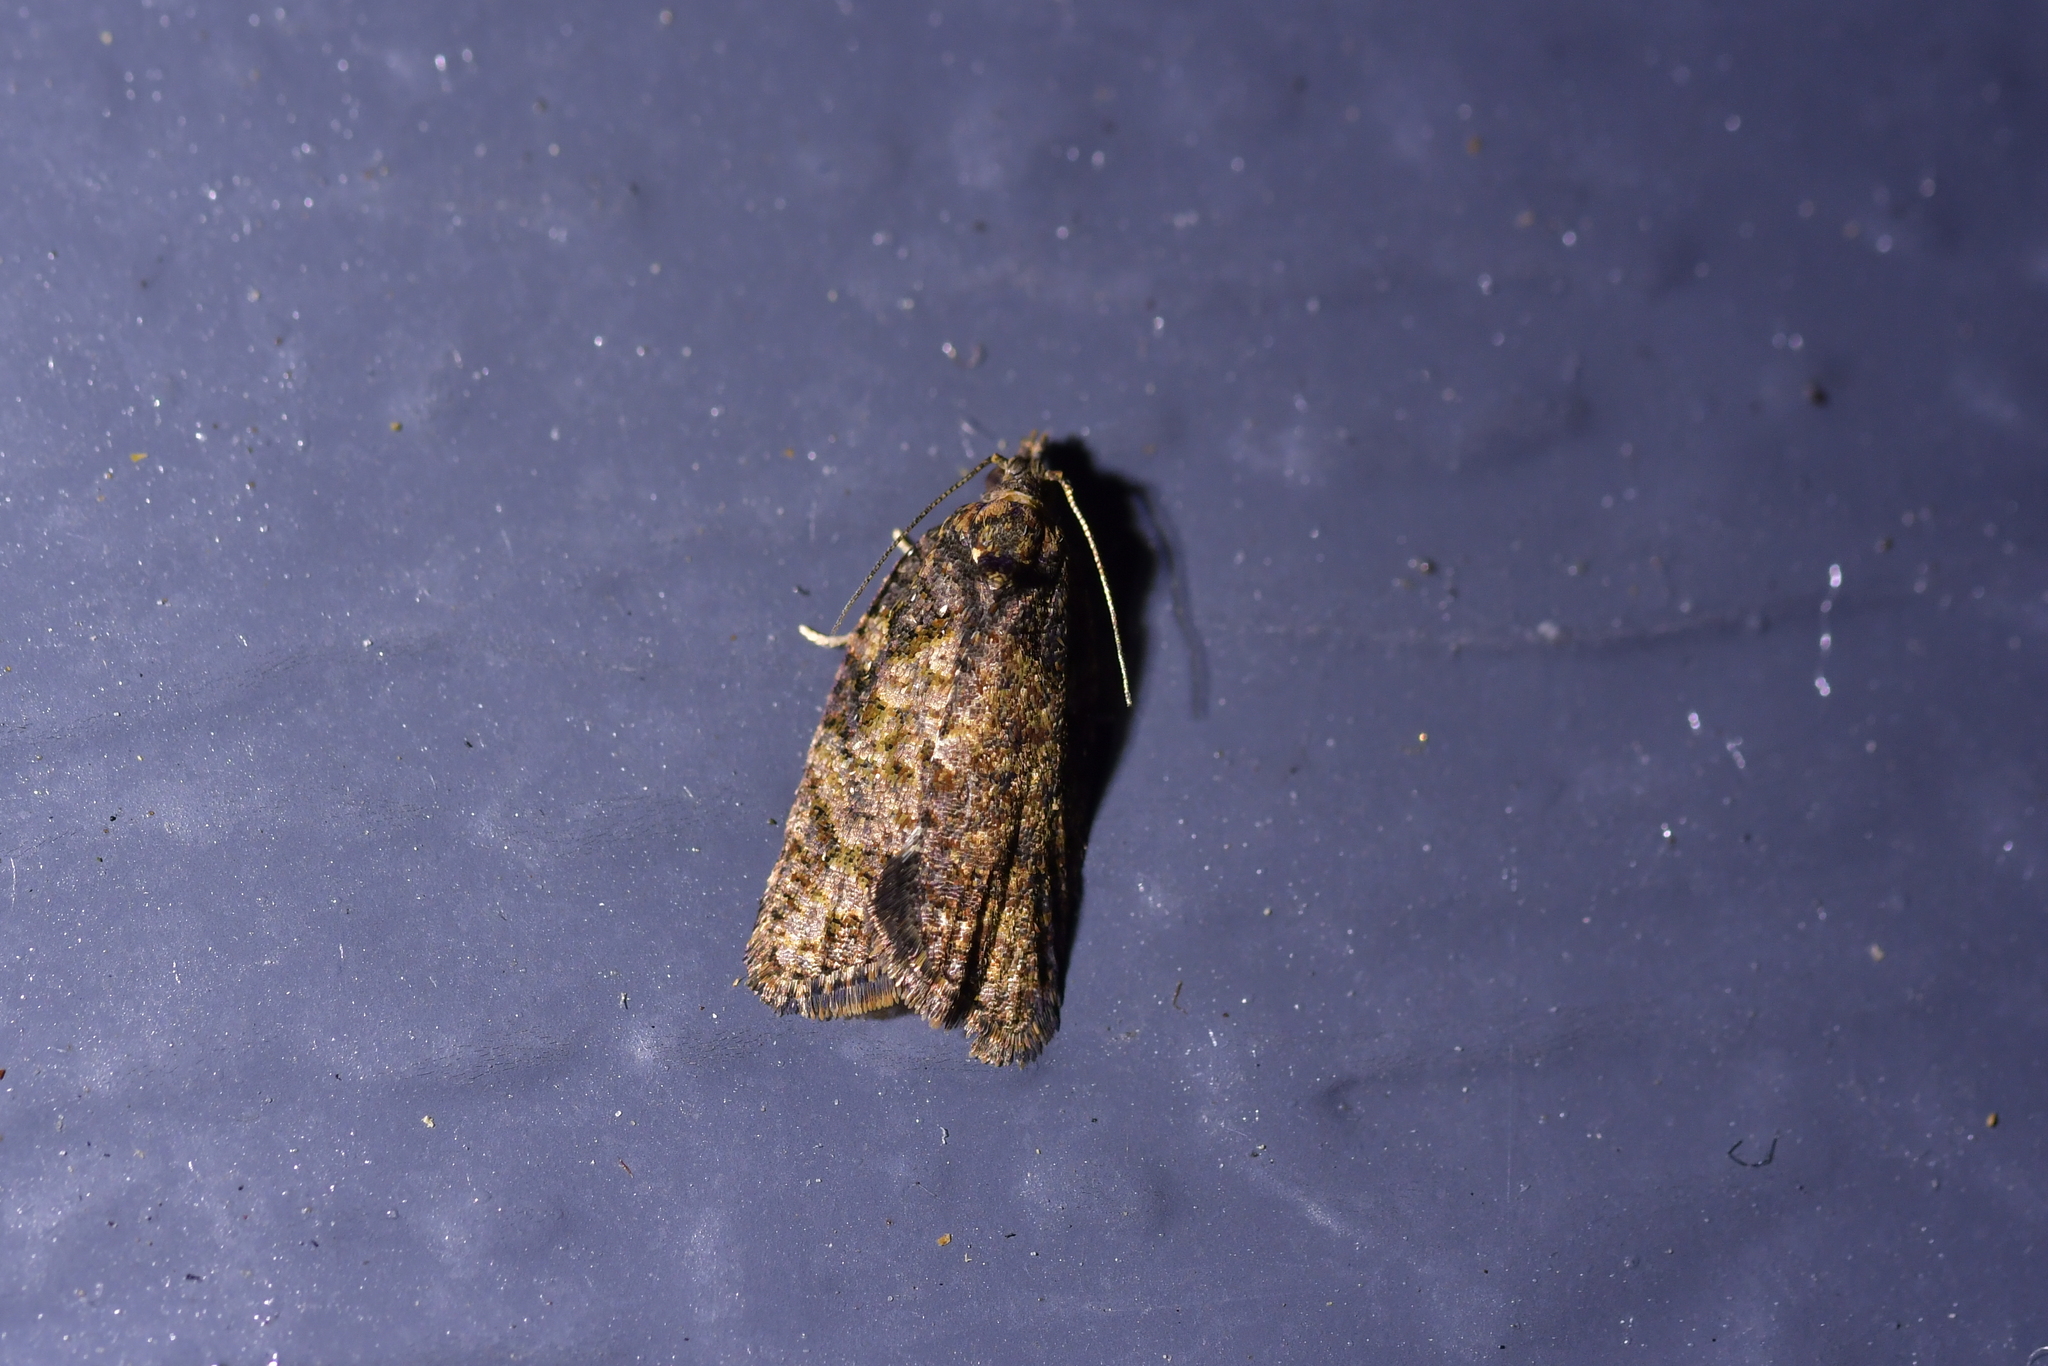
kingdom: Animalia
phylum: Arthropoda
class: Insecta
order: Lepidoptera
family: Tortricidae
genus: Capua
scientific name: Capua intractana
